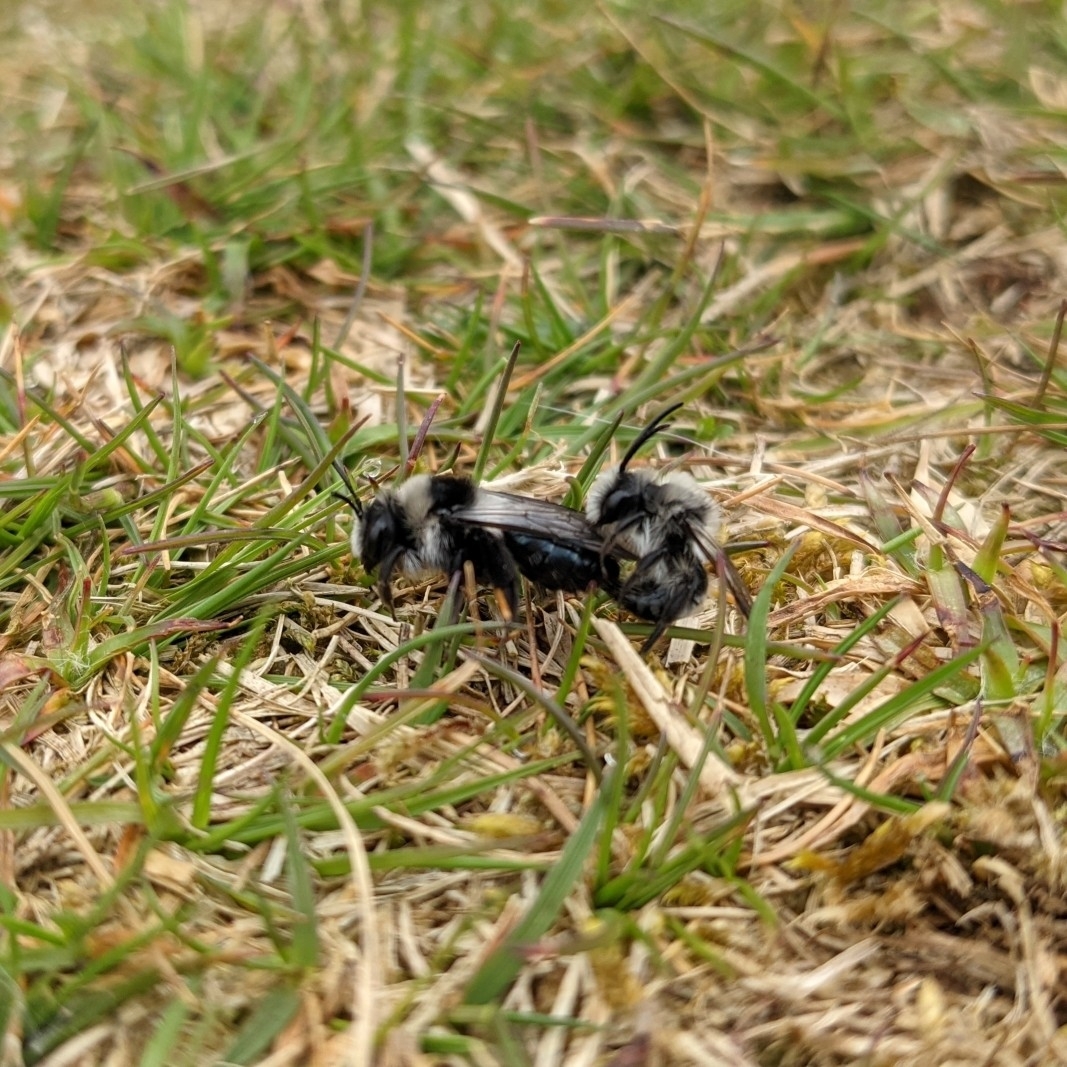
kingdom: Animalia
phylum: Arthropoda
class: Insecta
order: Hymenoptera
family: Andrenidae
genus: Andrena
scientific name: Andrena cineraria
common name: Ashy mining bee
